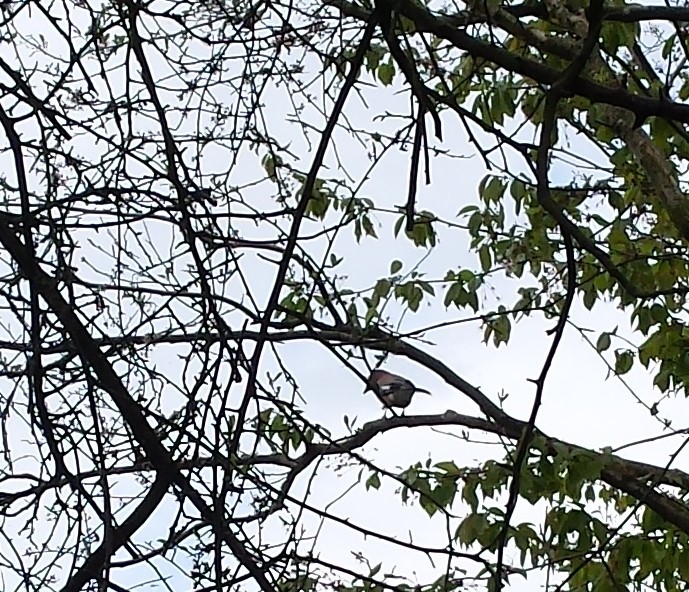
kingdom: Animalia
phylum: Chordata
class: Aves
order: Passeriformes
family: Corvidae
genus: Garrulus
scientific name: Garrulus glandarius
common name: Eurasian jay
